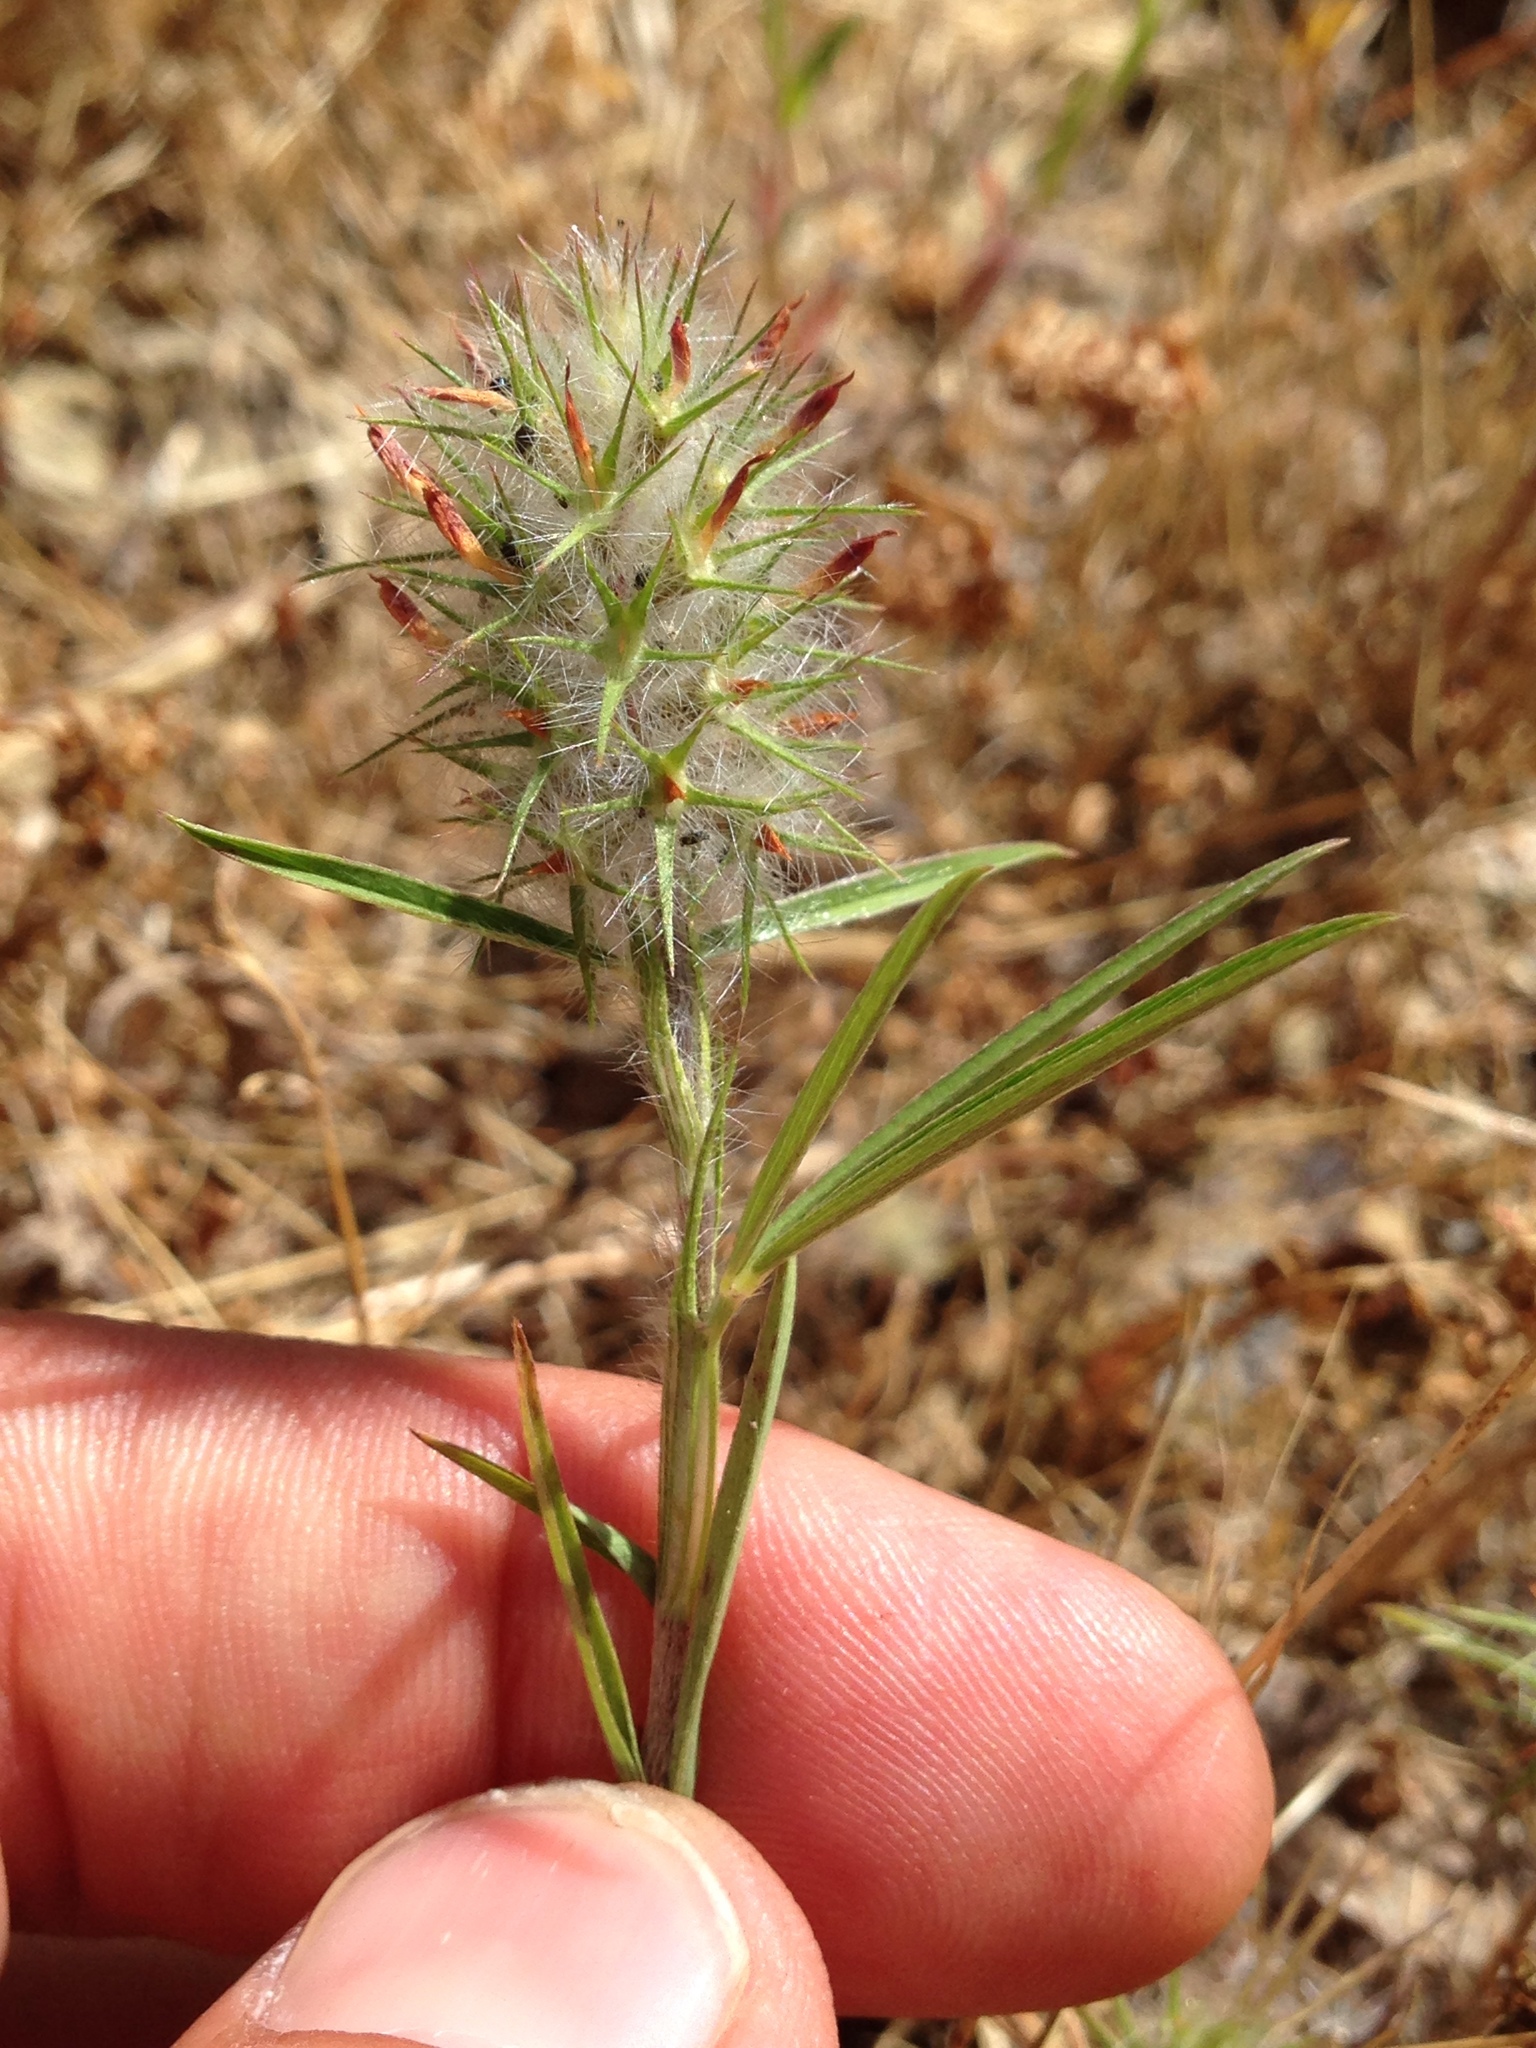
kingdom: Plantae
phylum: Tracheophyta
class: Magnoliopsida
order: Fabales
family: Fabaceae
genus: Trifolium
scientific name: Trifolium angustifolium
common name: Narrow clover
